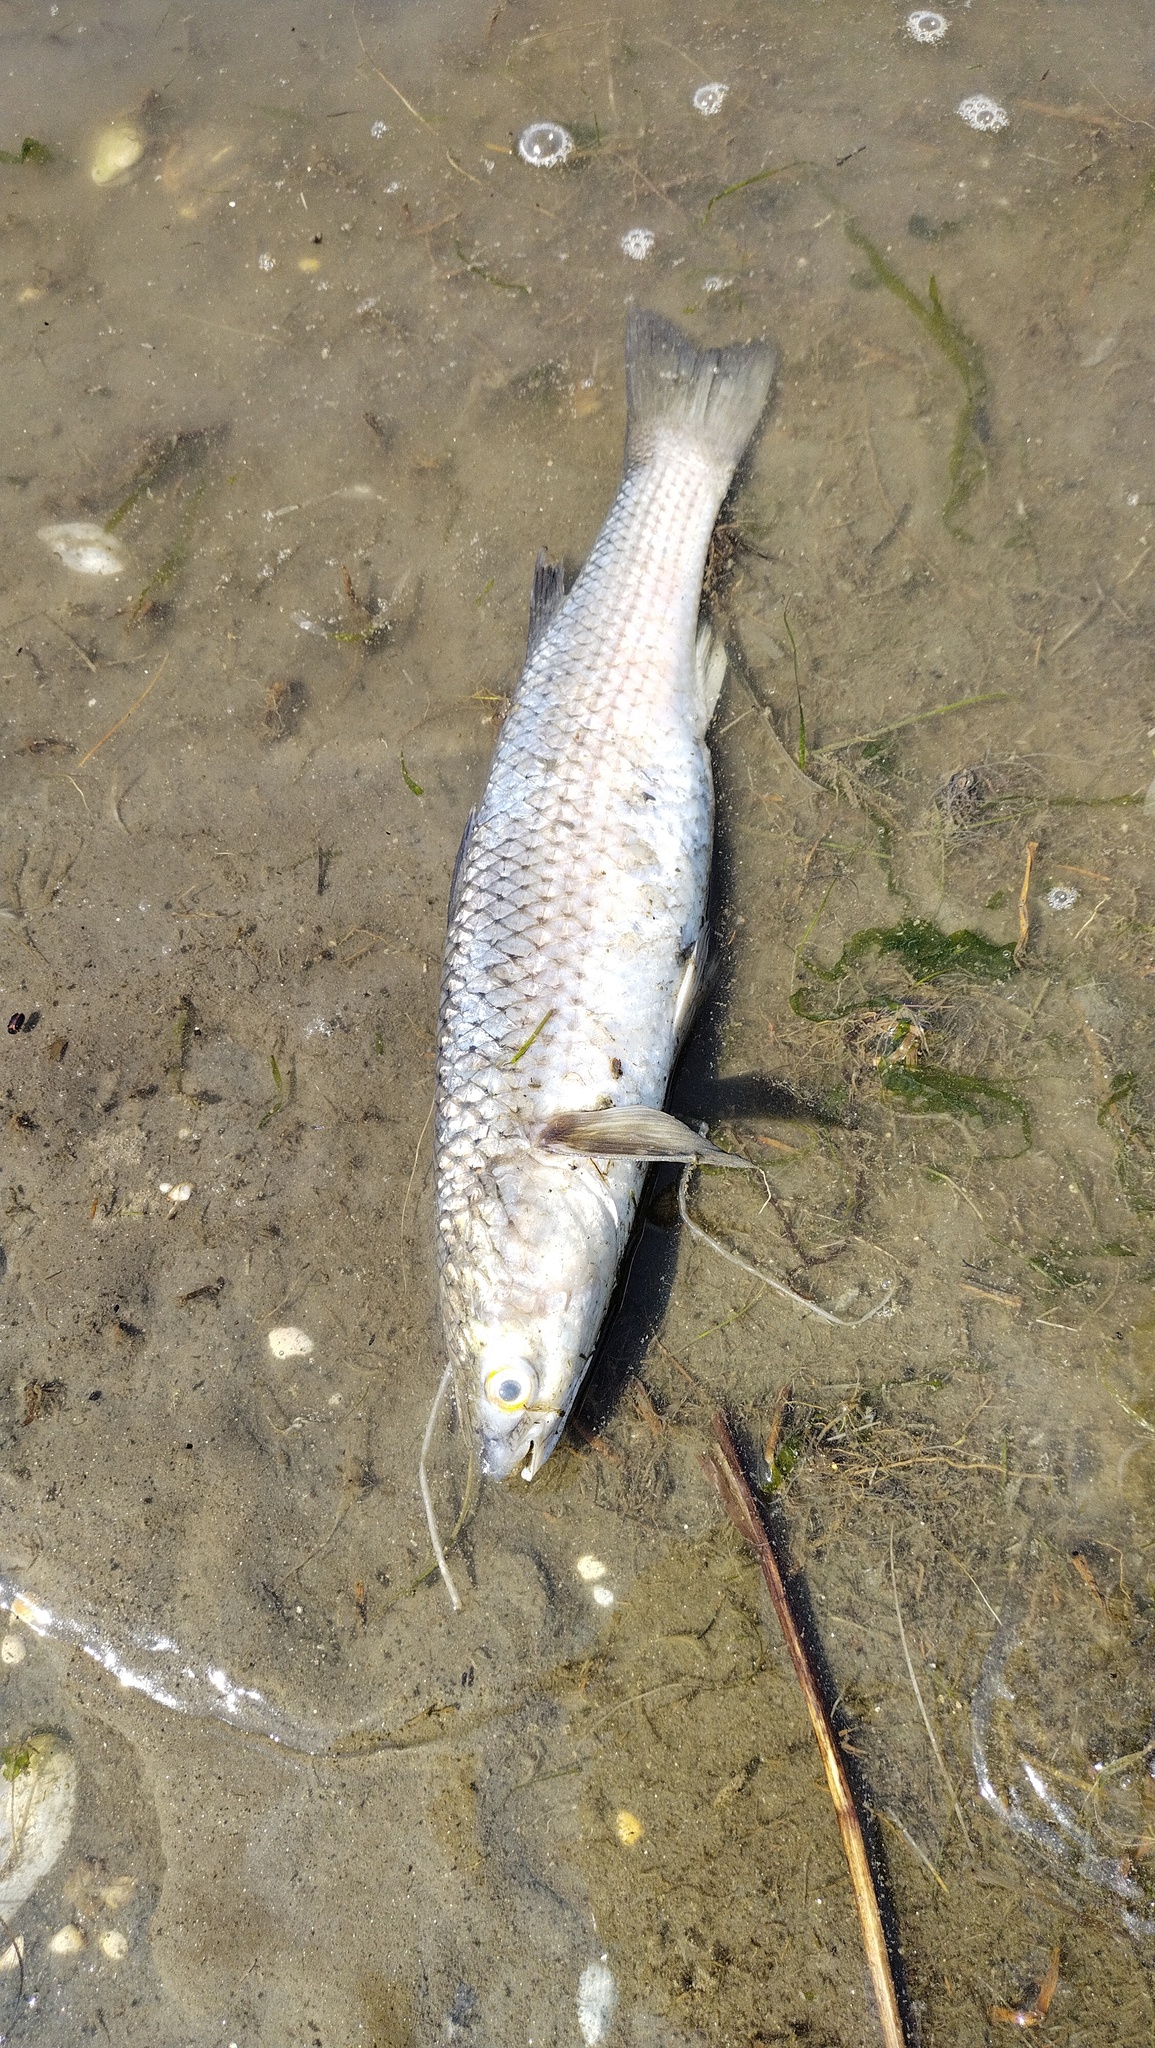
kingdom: Animalia
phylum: Chordata
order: Mugiliformes
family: Mugilidae
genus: Mugil
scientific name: Mugil cephalus
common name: Grey mullet
